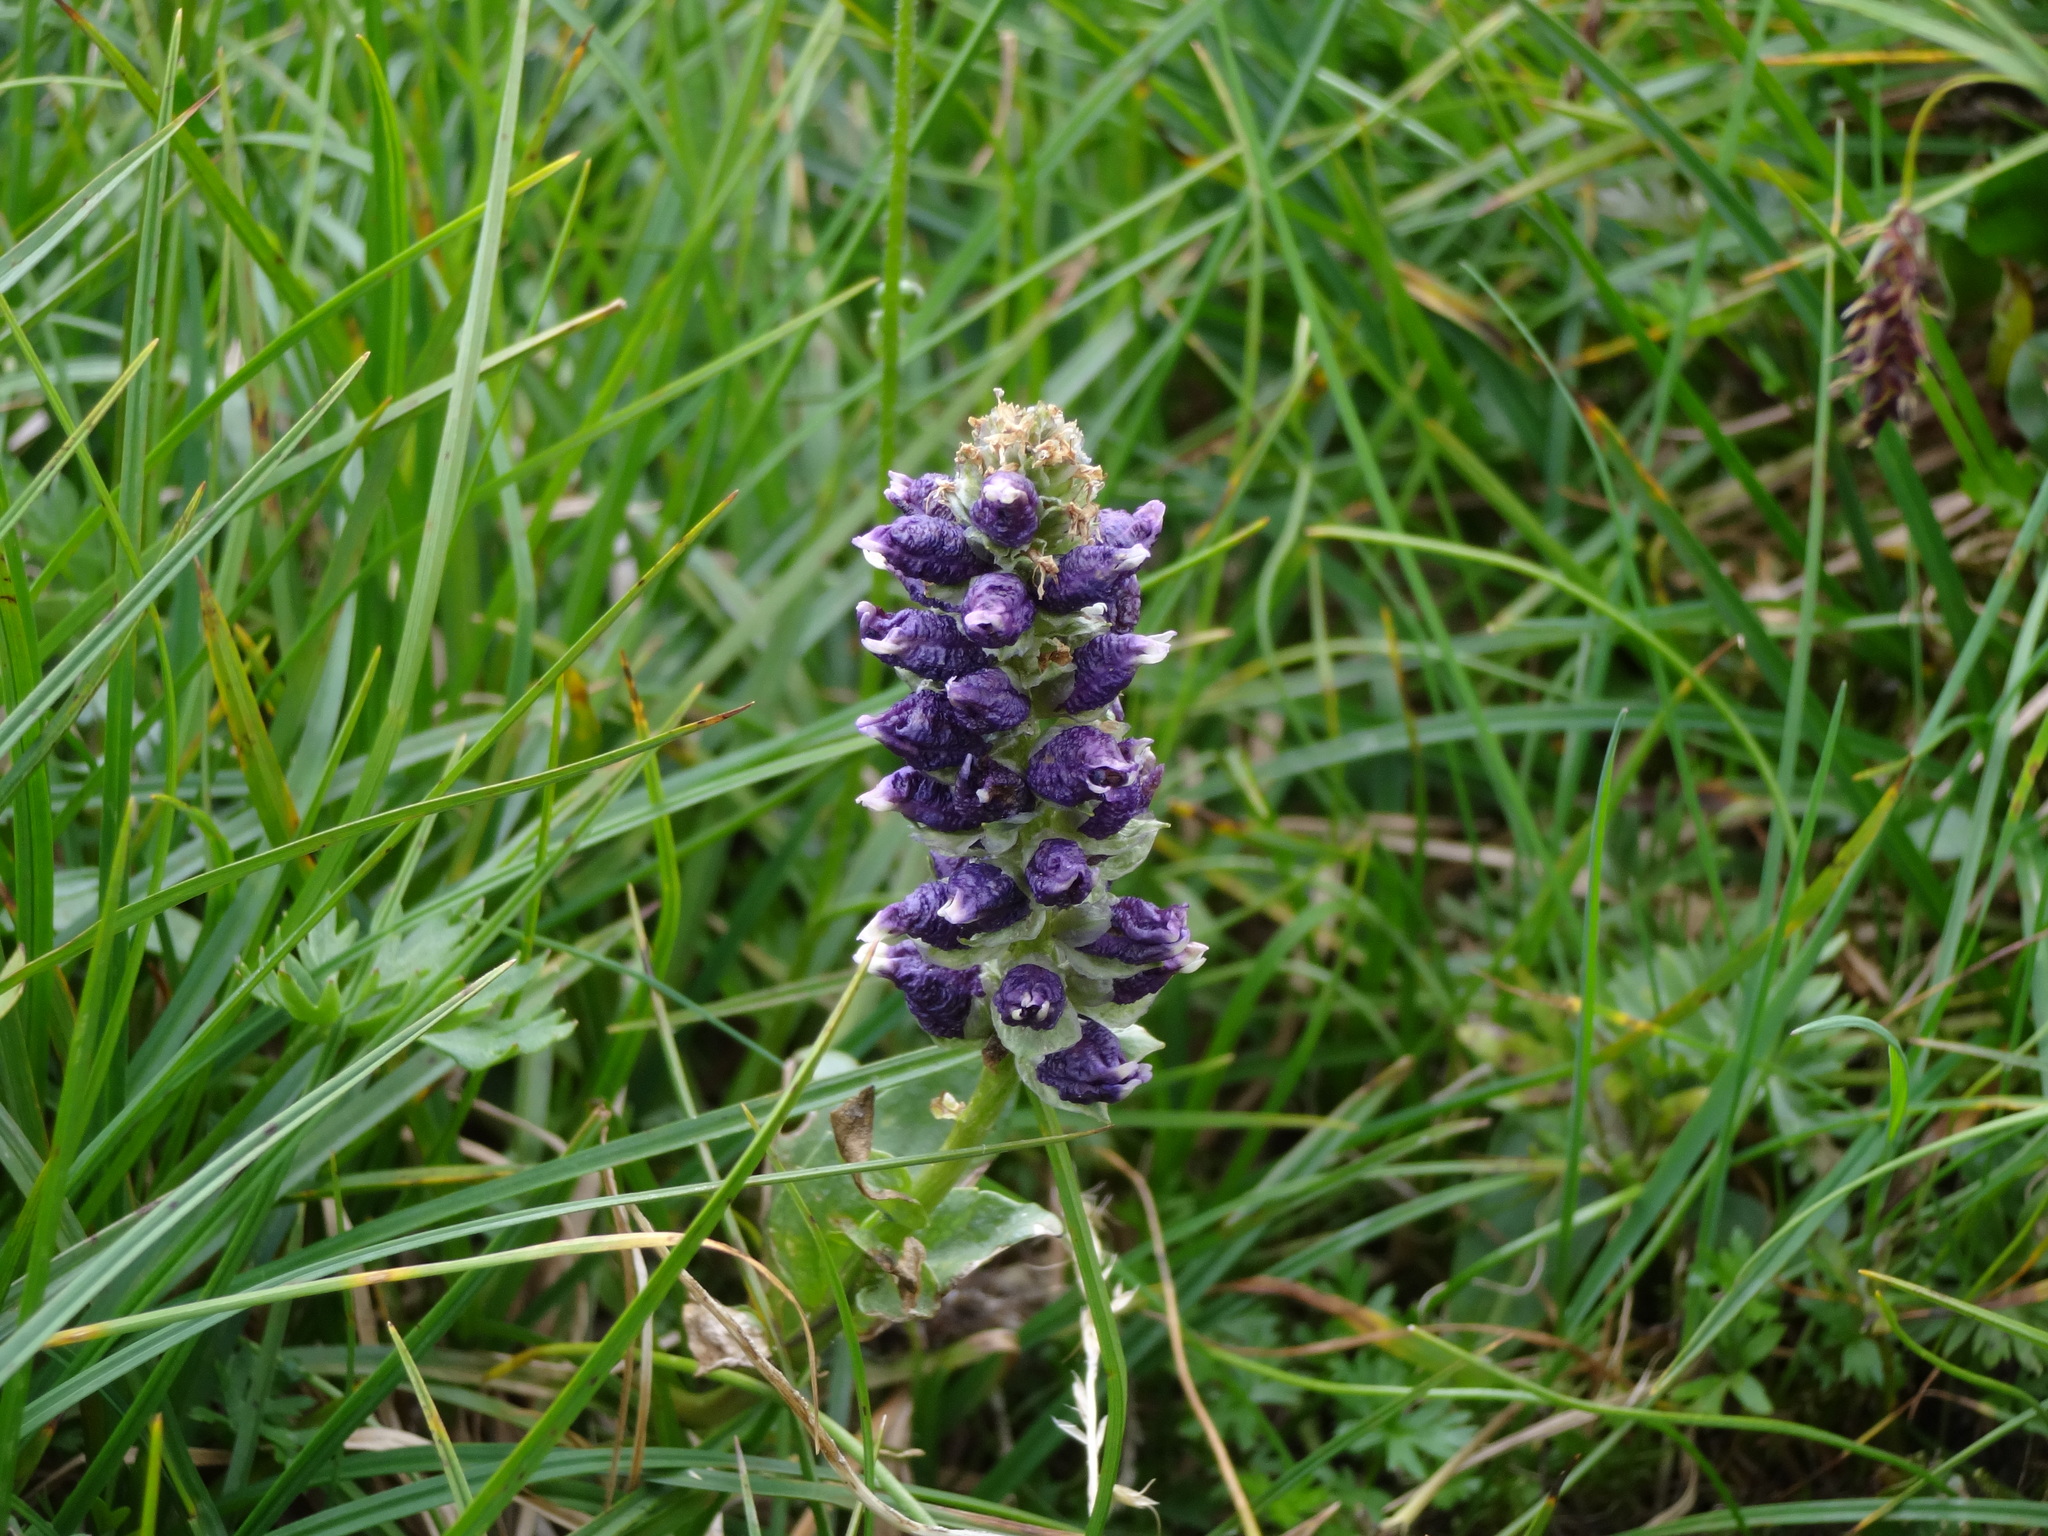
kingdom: Plantae
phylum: Tracheophyta
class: Magnoliopsida
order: Lamiales
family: Plantaginaceae
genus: Lagotis
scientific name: Lagotis glauca
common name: Glaucous weaselsnout
